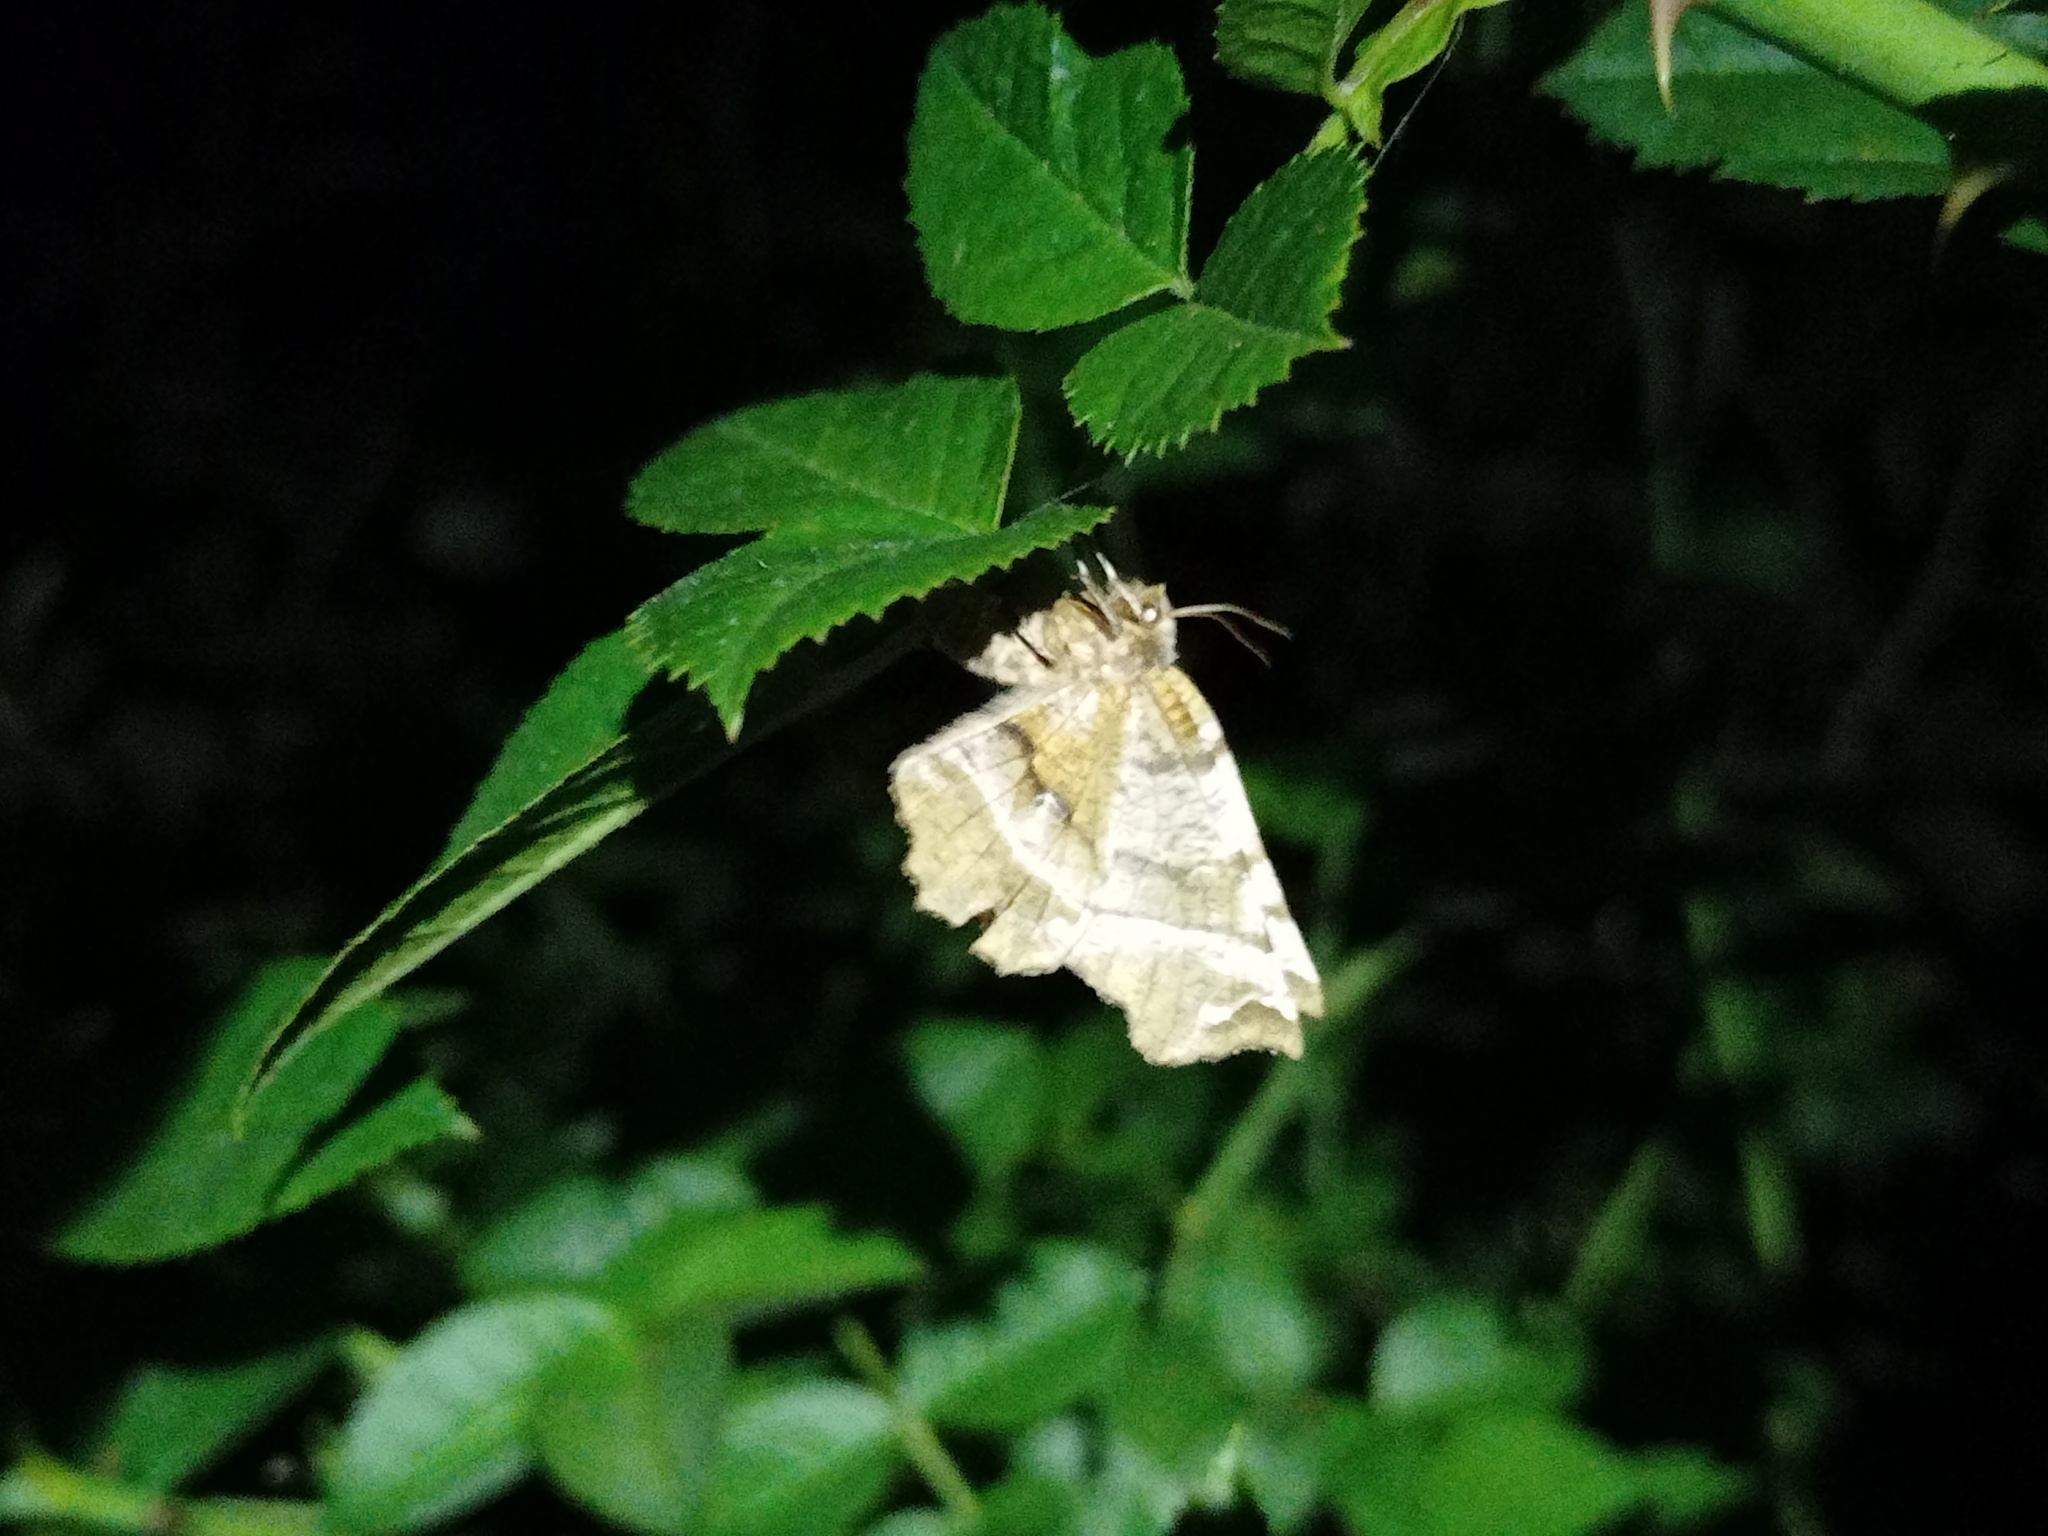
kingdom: Animalia
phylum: Arthropoda
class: Insecta
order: Lepidoptera
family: Geometridae
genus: Selenia
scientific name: Selenia dentaria
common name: Early thorn
